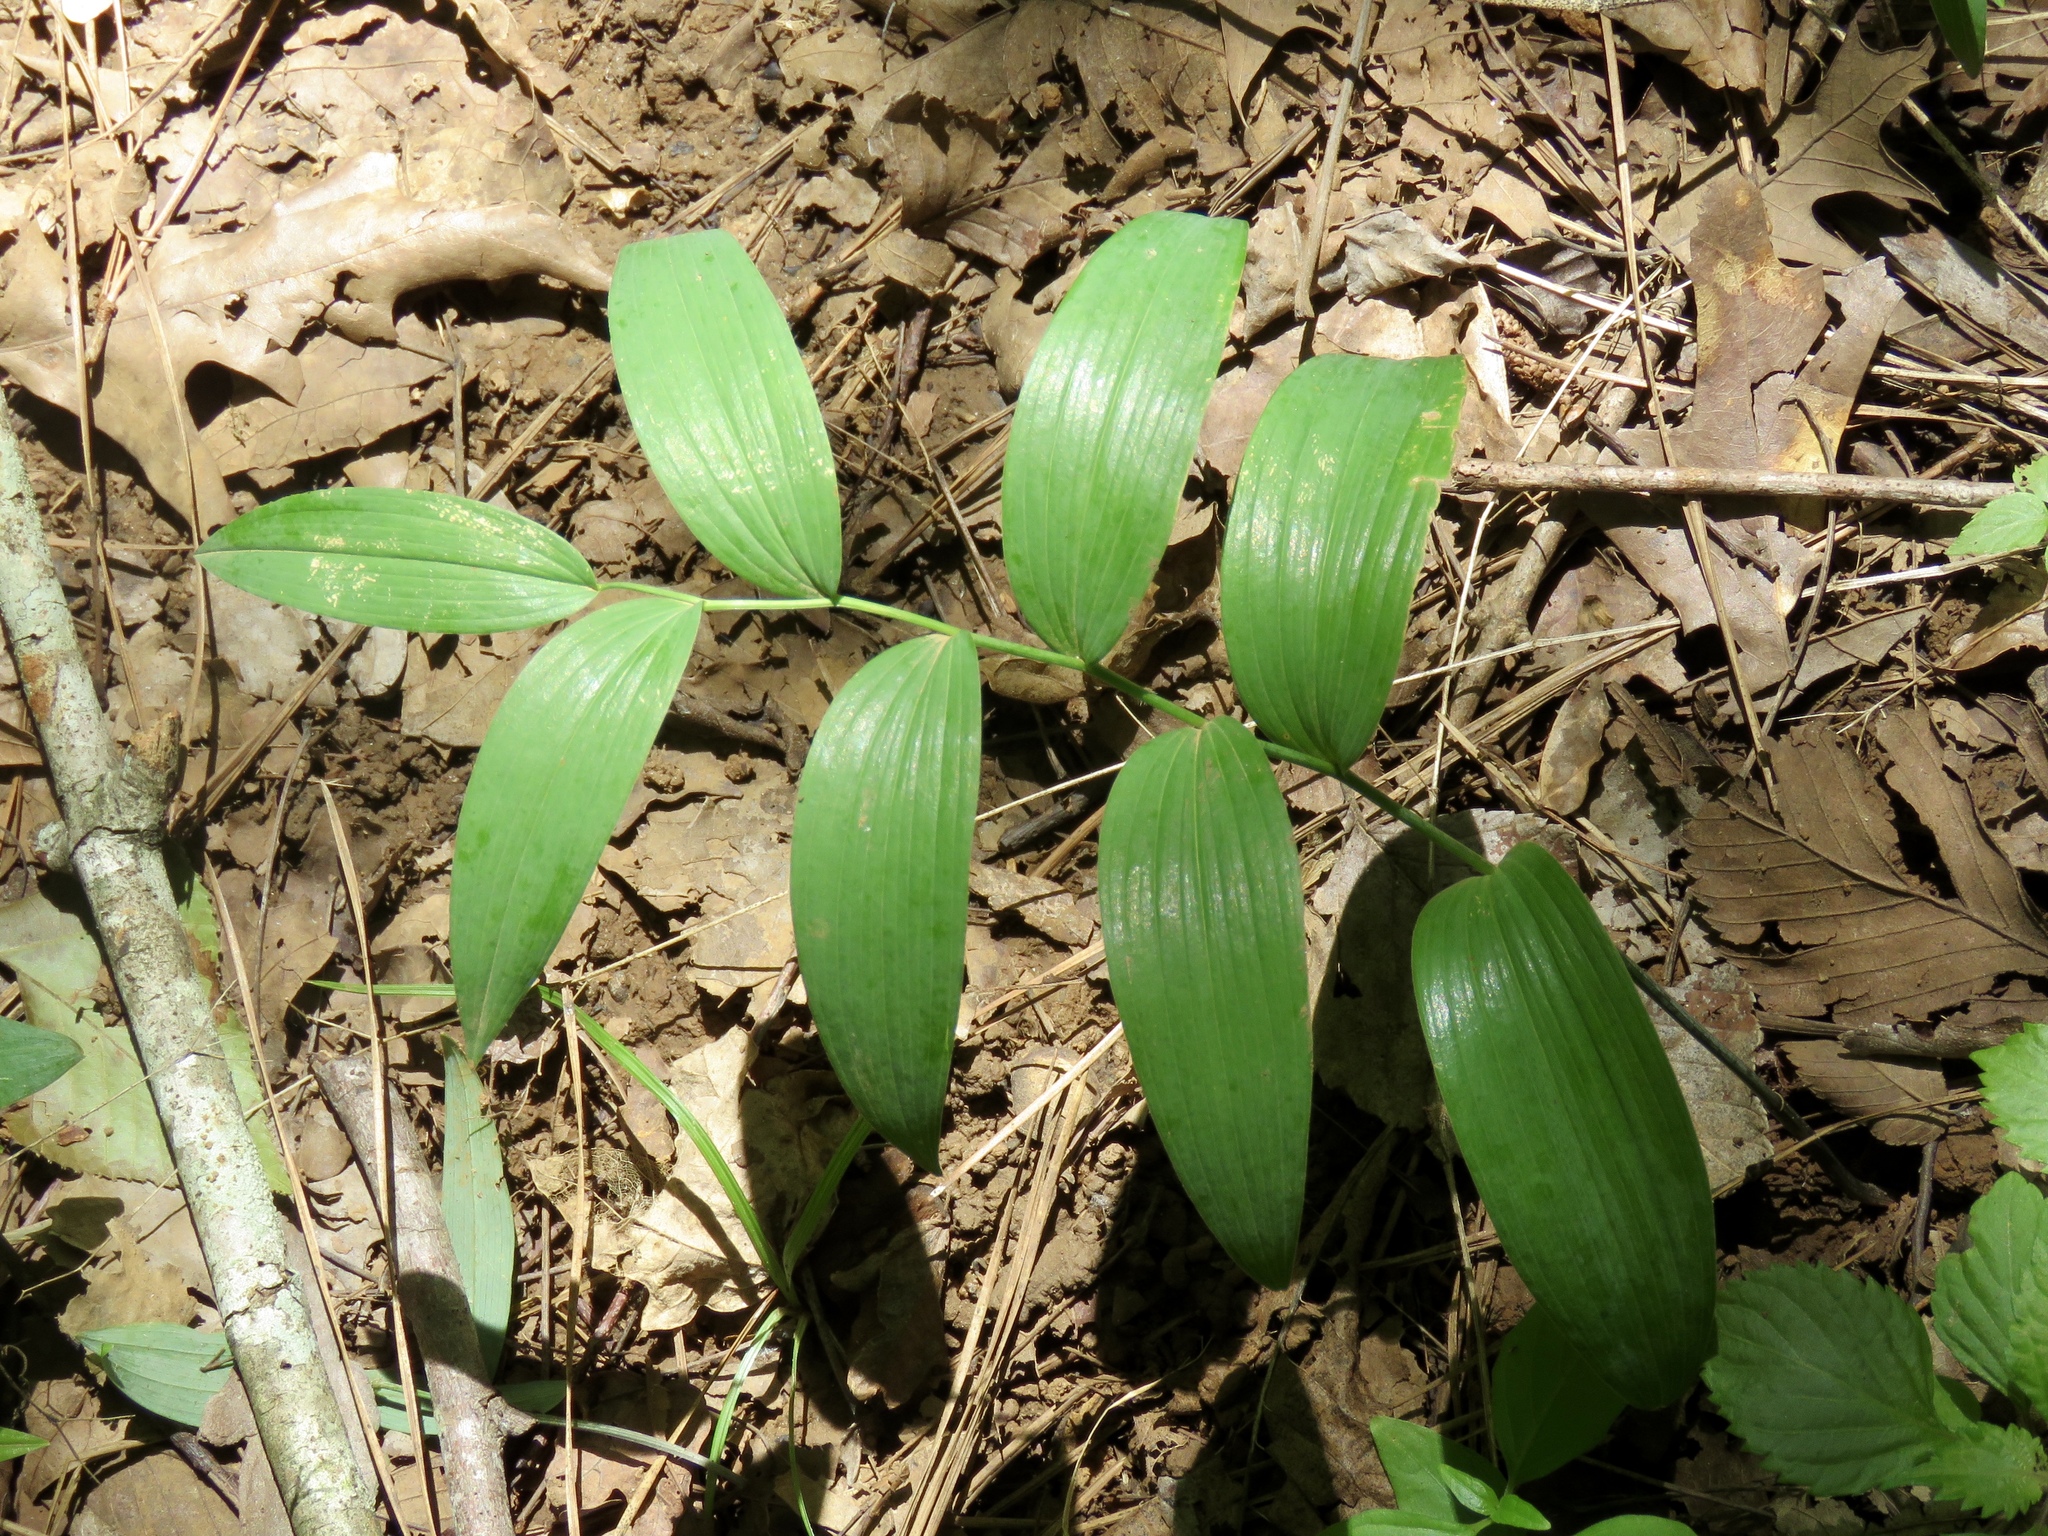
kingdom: Plantae
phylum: Tracheophyta
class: Liliopsida
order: Asparagales
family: Asparagaceae
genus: Polygonatum
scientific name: Polygonatum biflorum
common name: American solomon's-seal
